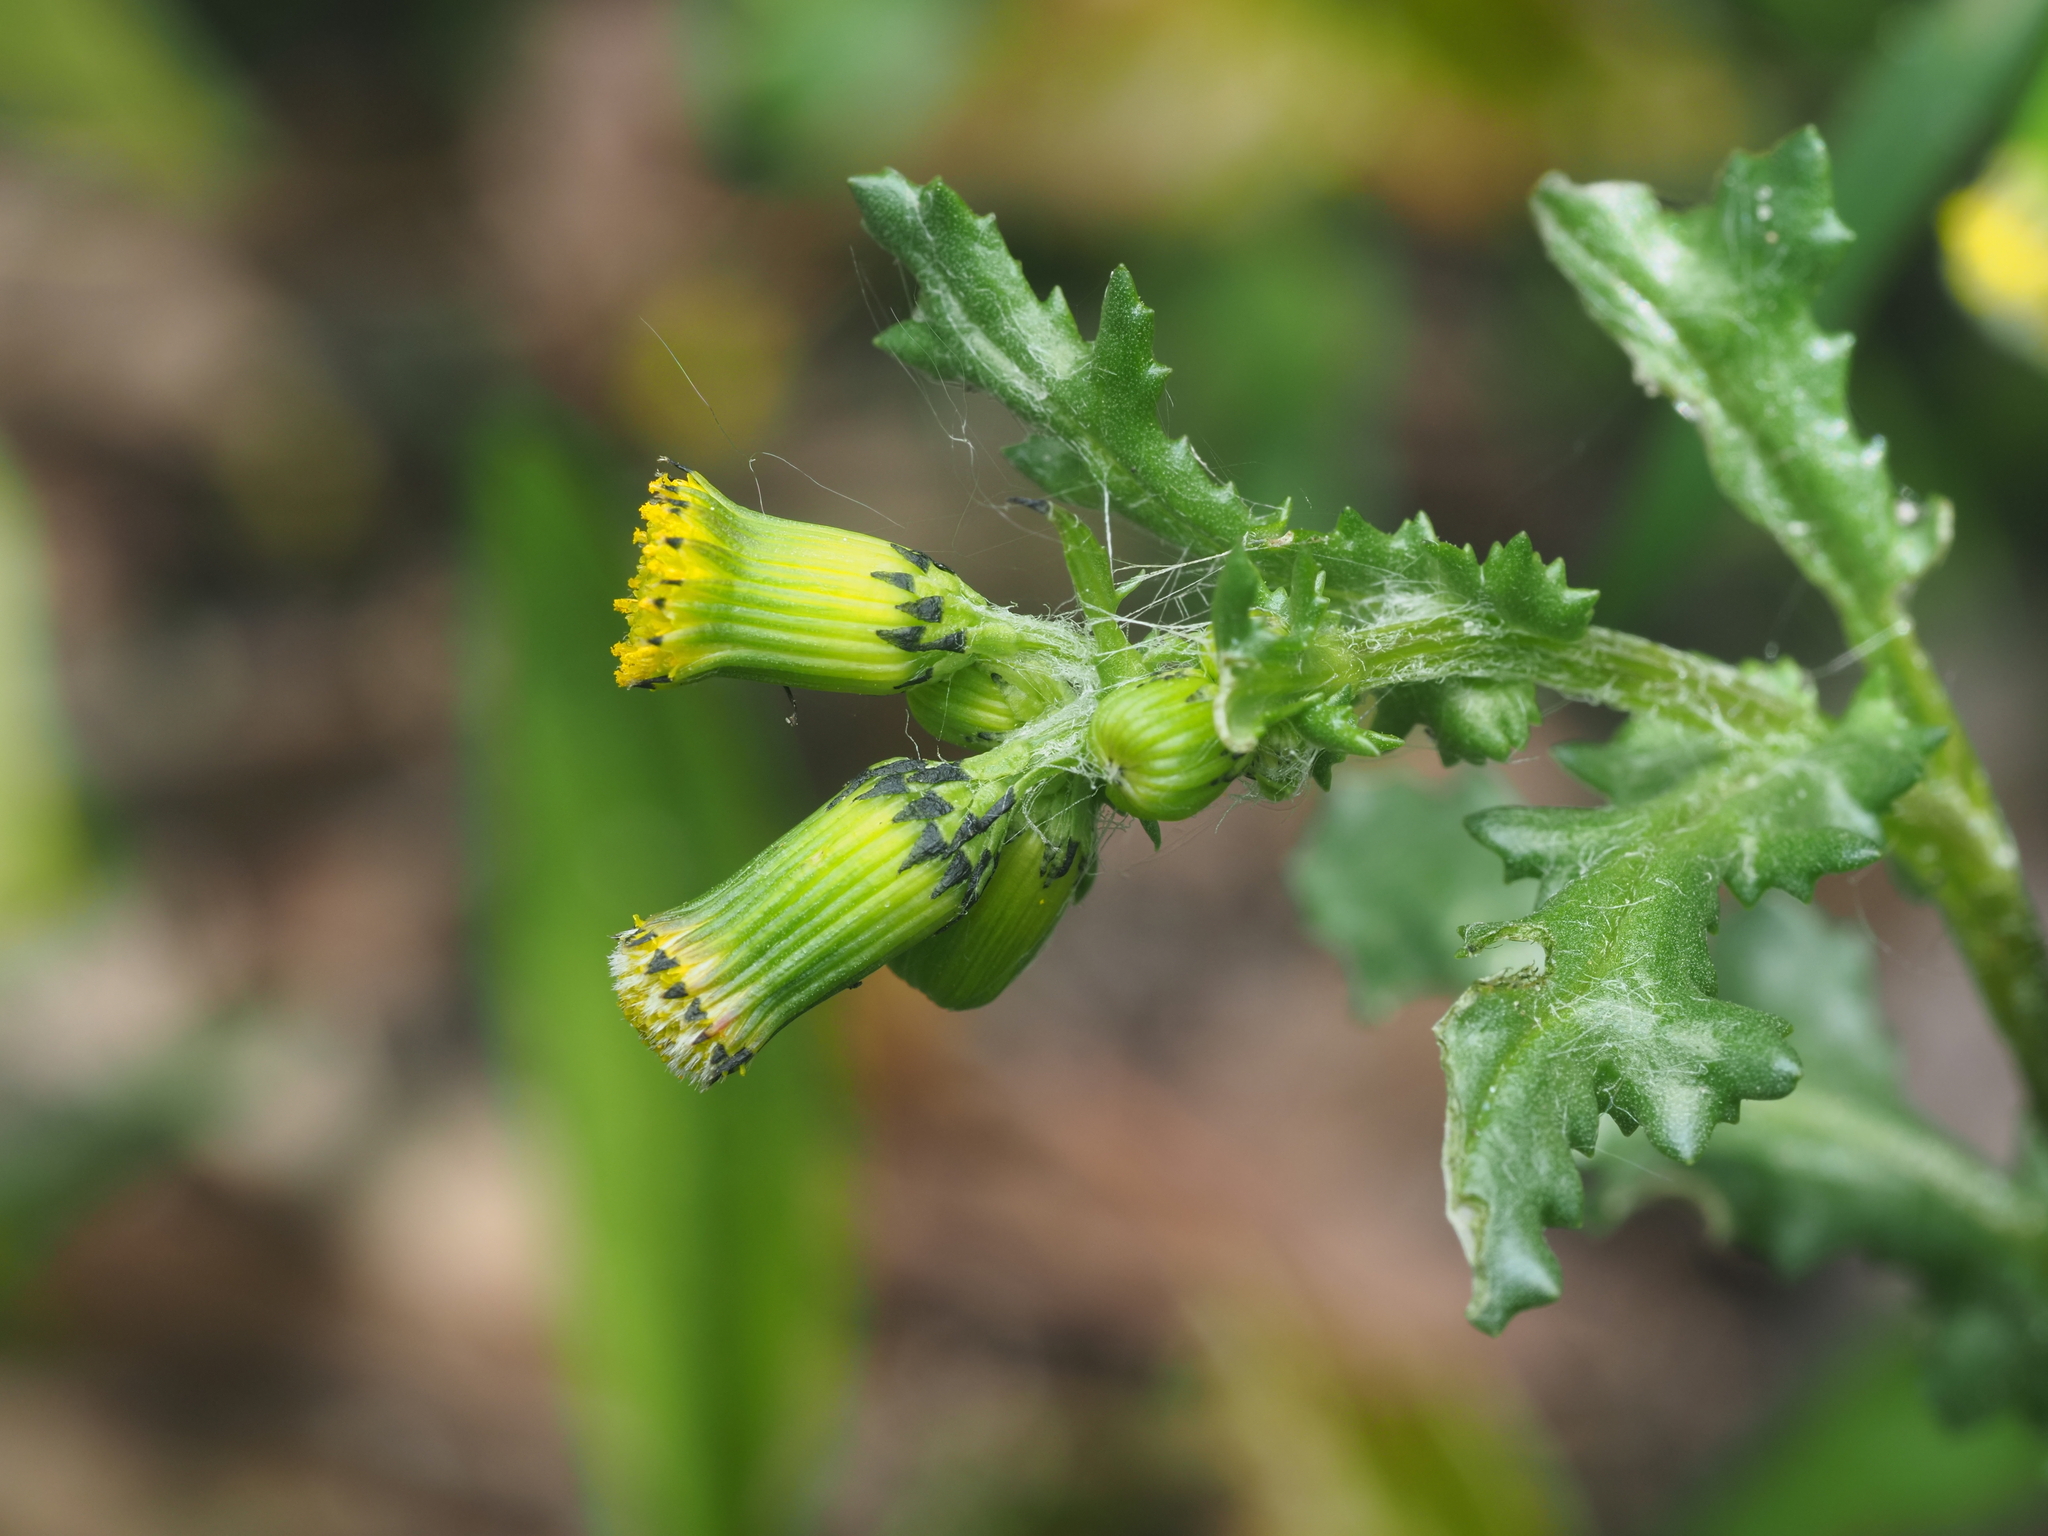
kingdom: Plantae
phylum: Tracheophyta
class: Magnoliopsida
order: Asterales
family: Asteraceae
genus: Senecio
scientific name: Senecio vulgaris
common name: Old-man-in-the-spring
